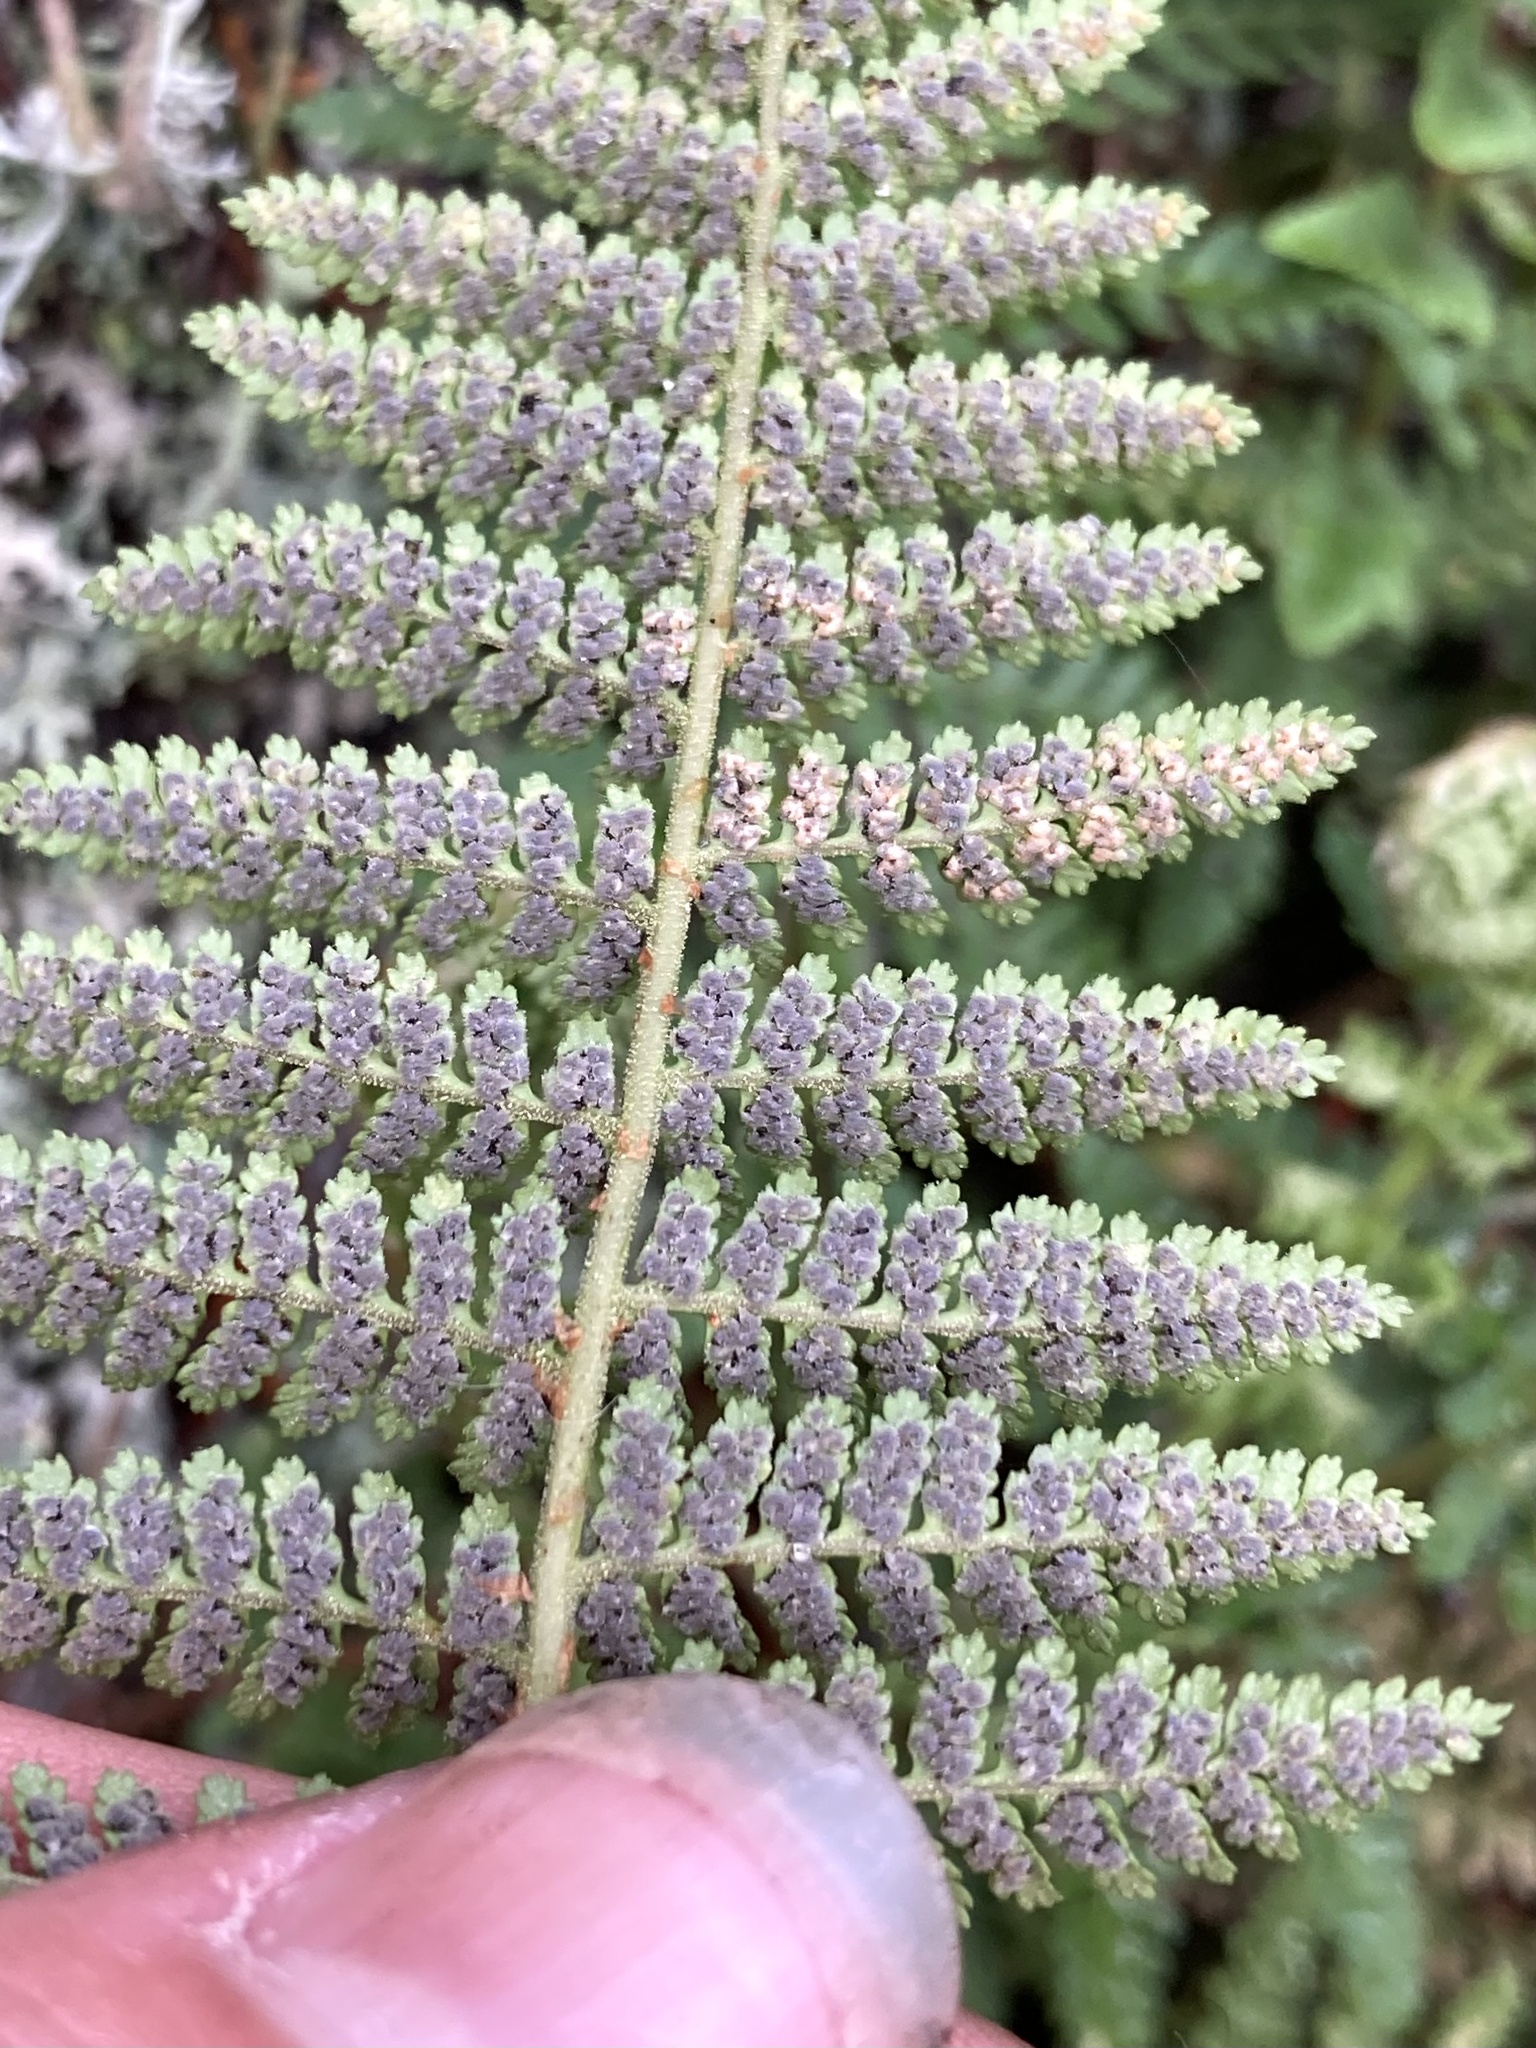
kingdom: Plantae
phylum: Tracheophyta
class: Polypodiopsida
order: Polypodiales
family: Dryopteridaceae
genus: Dryopteris
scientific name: Dryopteris fragrans
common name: Fragrant wood fern
